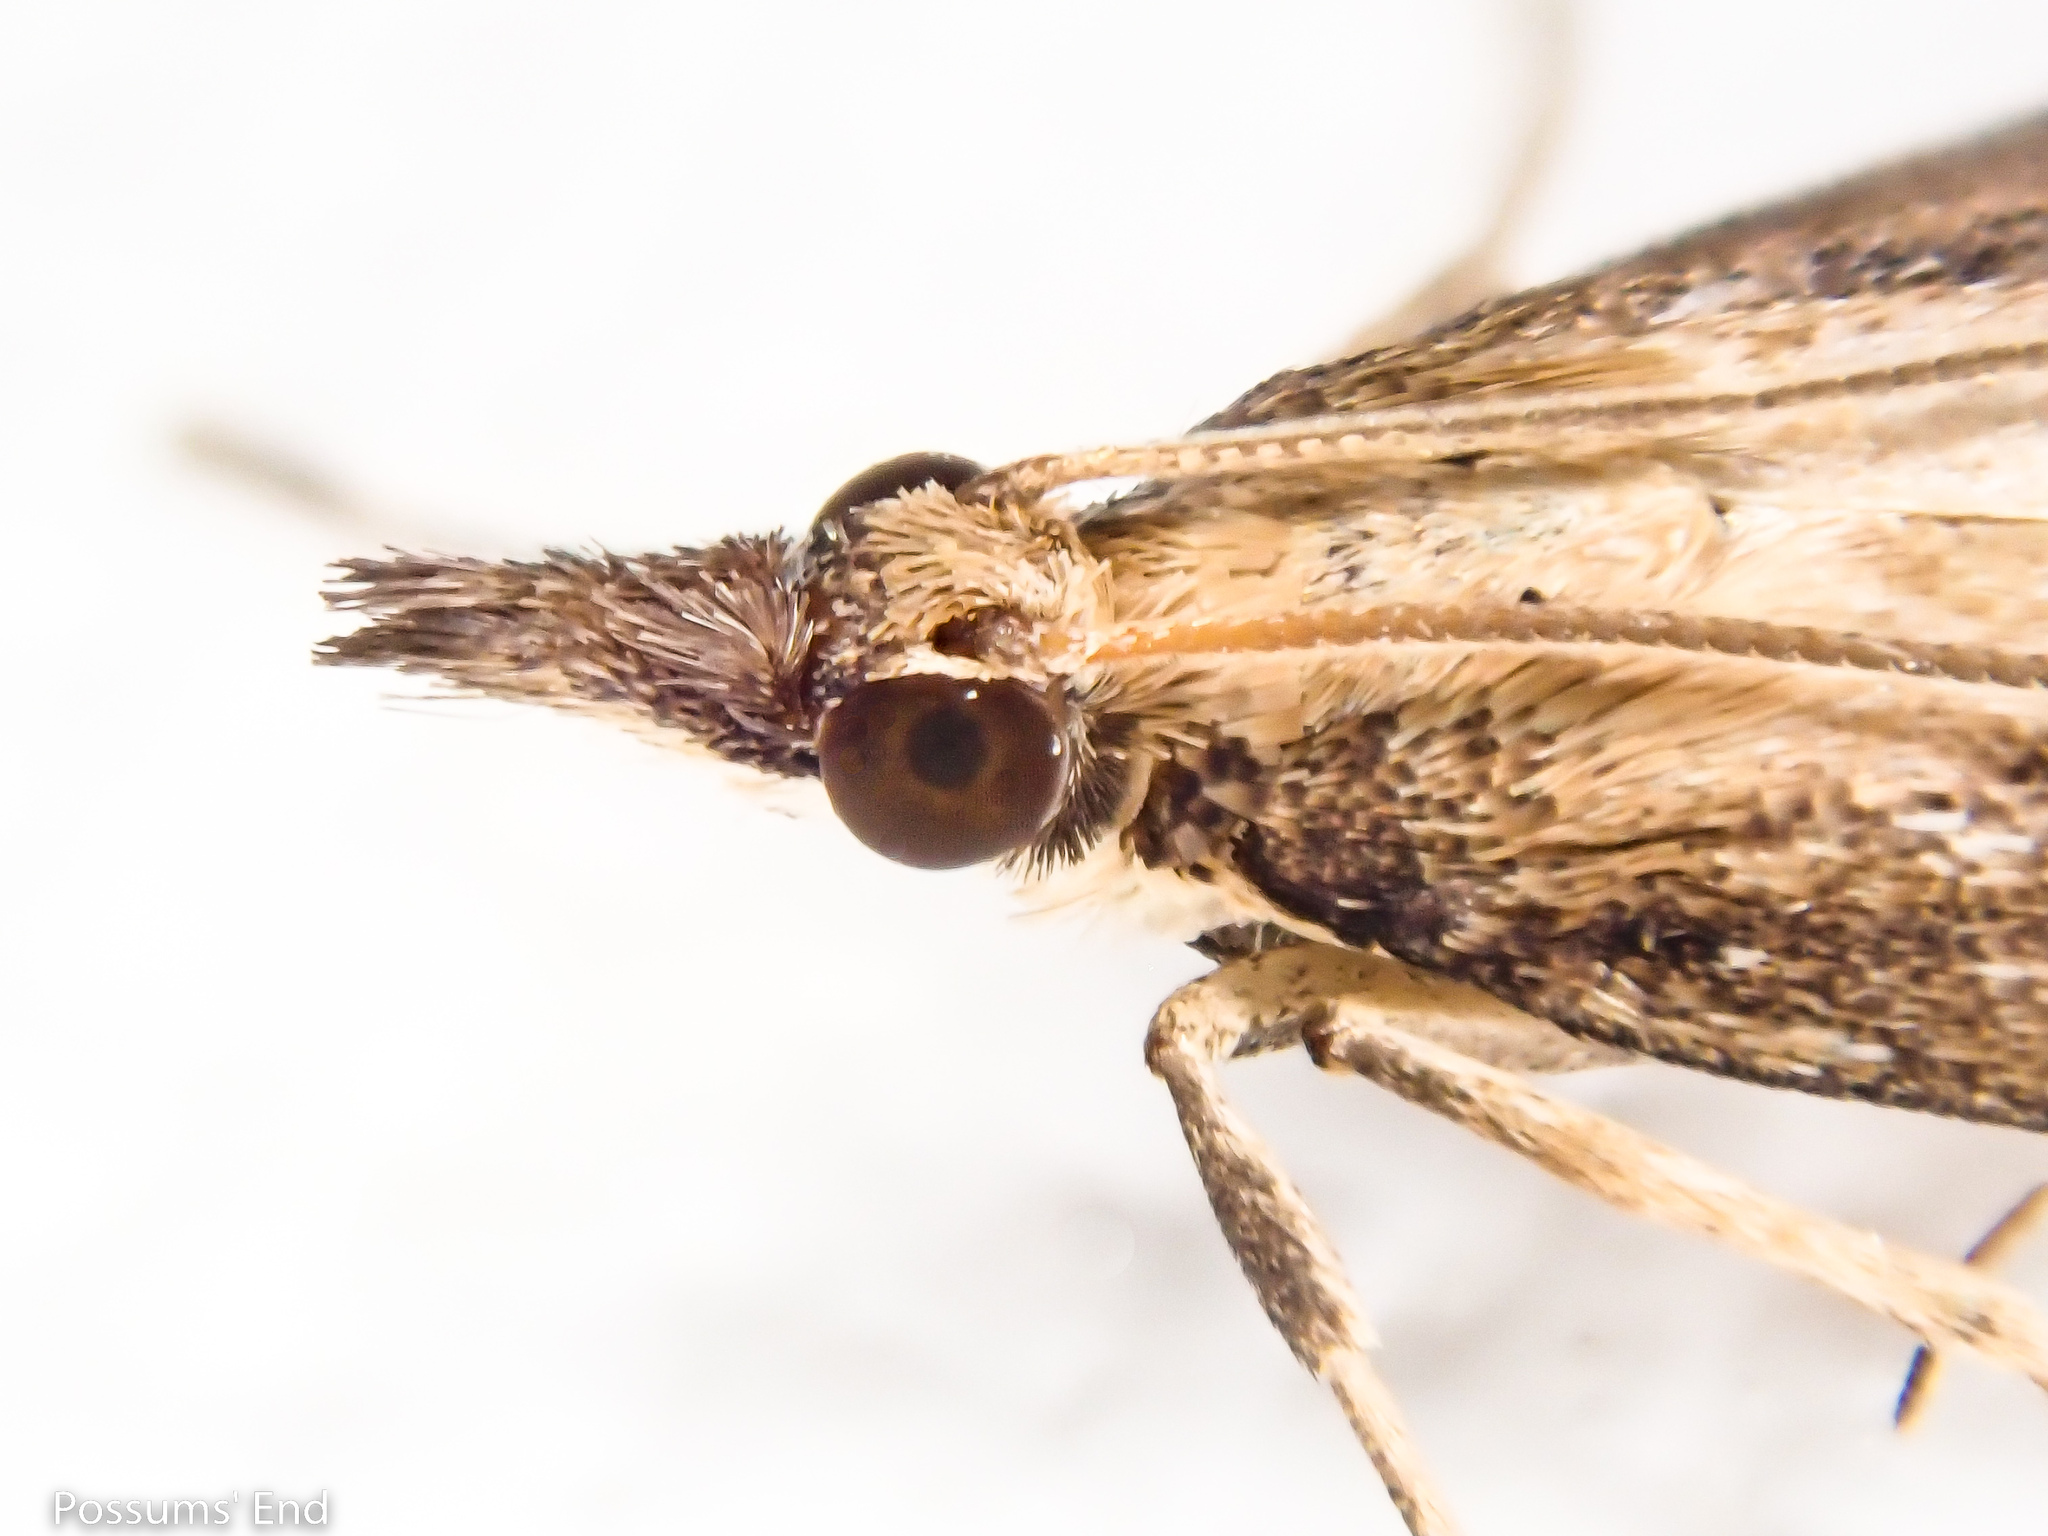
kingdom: Animalia
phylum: Arthropoda
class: Insecta
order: Lepidoptera
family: Crambidae
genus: Eudonia
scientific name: Eudonia octophora
